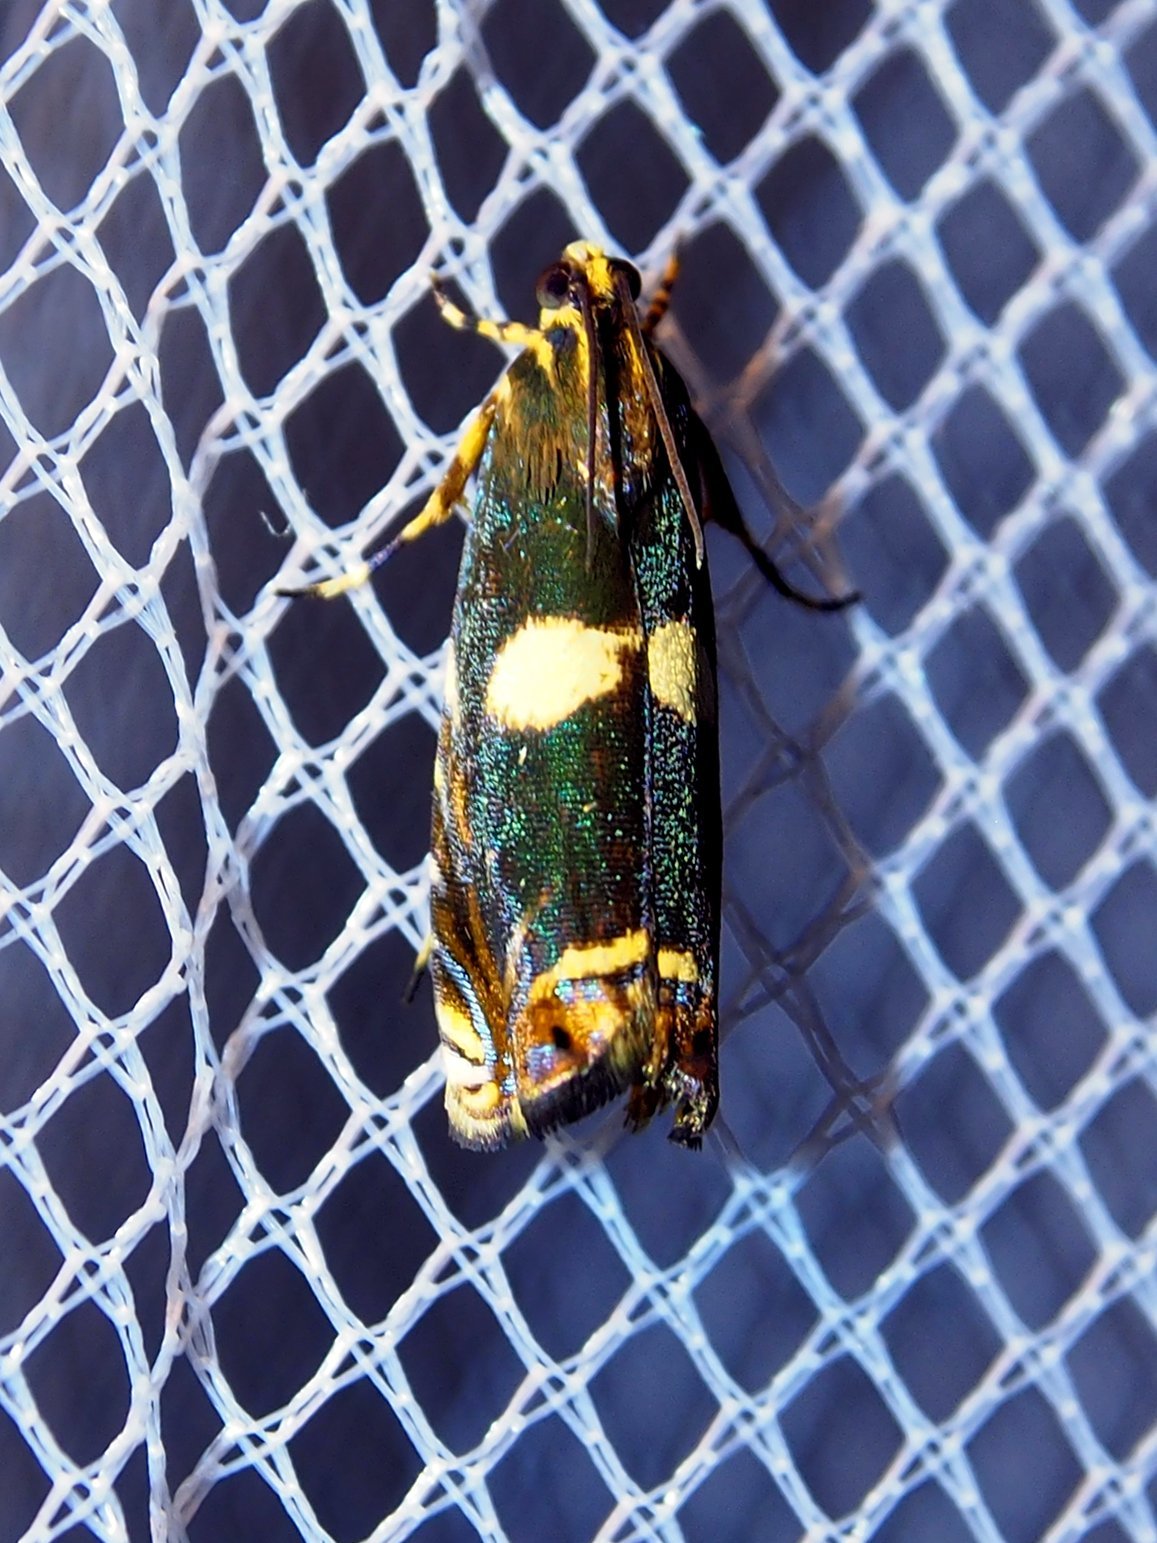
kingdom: Animalia
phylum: Arthropoda
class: Insecta
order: Lepidoptera
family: Tortricidae
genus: Hilarographa
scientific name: Hilarographa plectanodes
